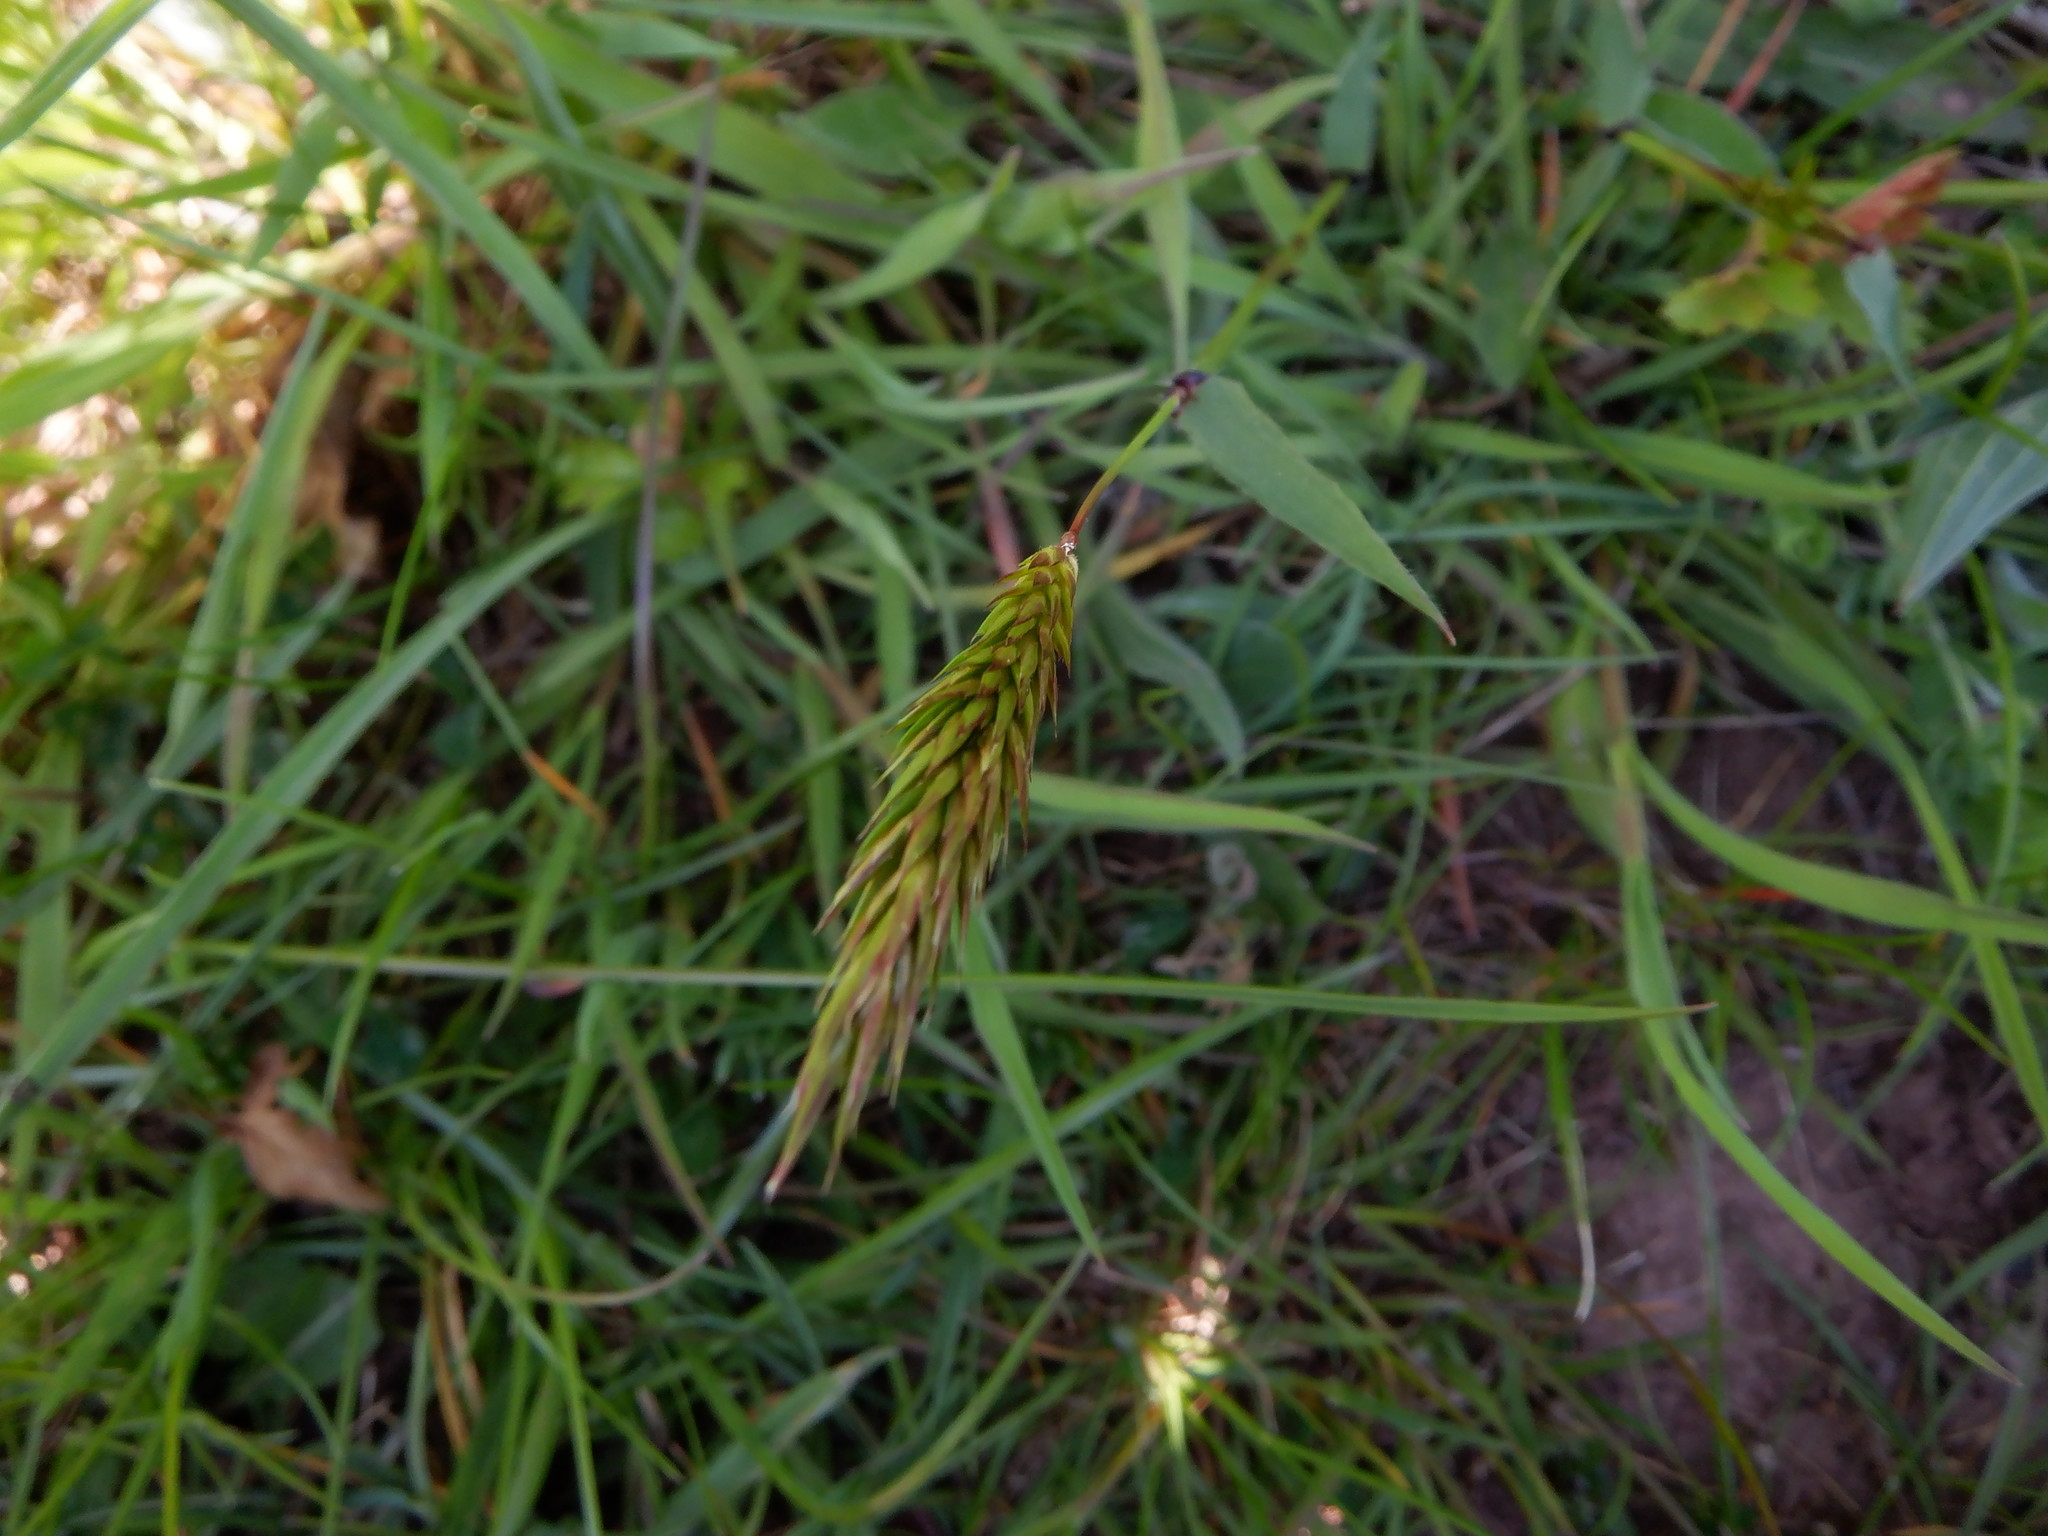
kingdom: Plantae
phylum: Tracheophyta
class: Liliopsida
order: Poales
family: Poaceae
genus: Anthoxanthum
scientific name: Anthoxanthum odoratum
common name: Sweet vernalgrass
